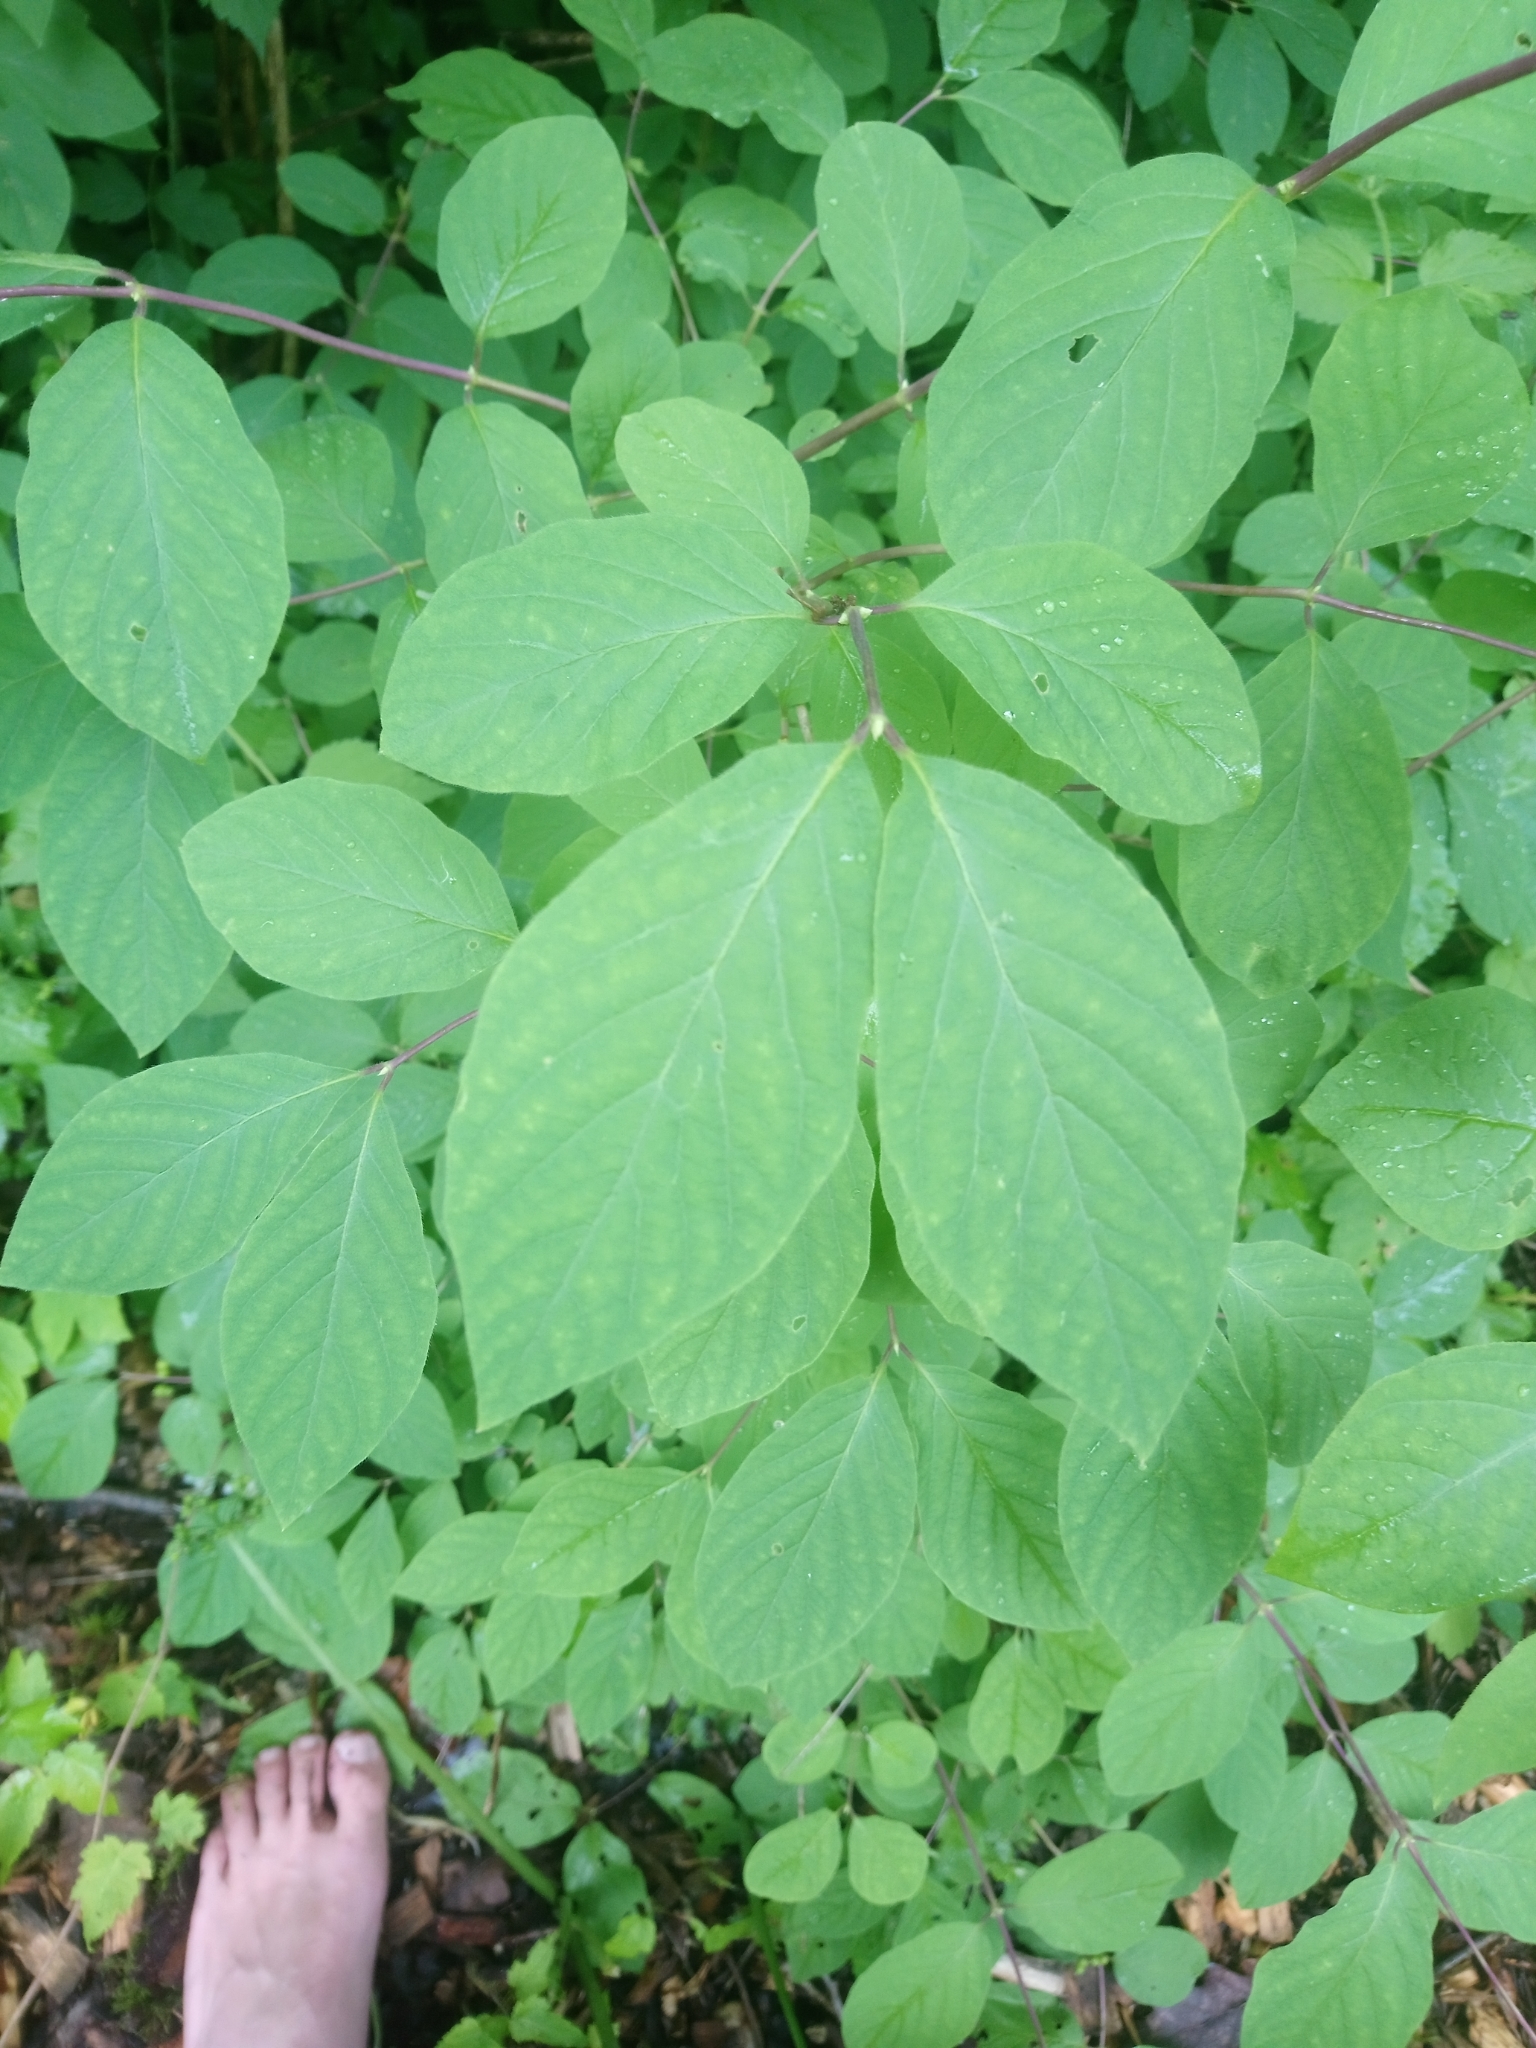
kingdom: Plantae
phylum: Tracheophyta
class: Magnoliopsida
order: Dipsacales
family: Caprifoliaceae
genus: Lonicera
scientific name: Lonicera xylosteum
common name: Fly honeysuckle
